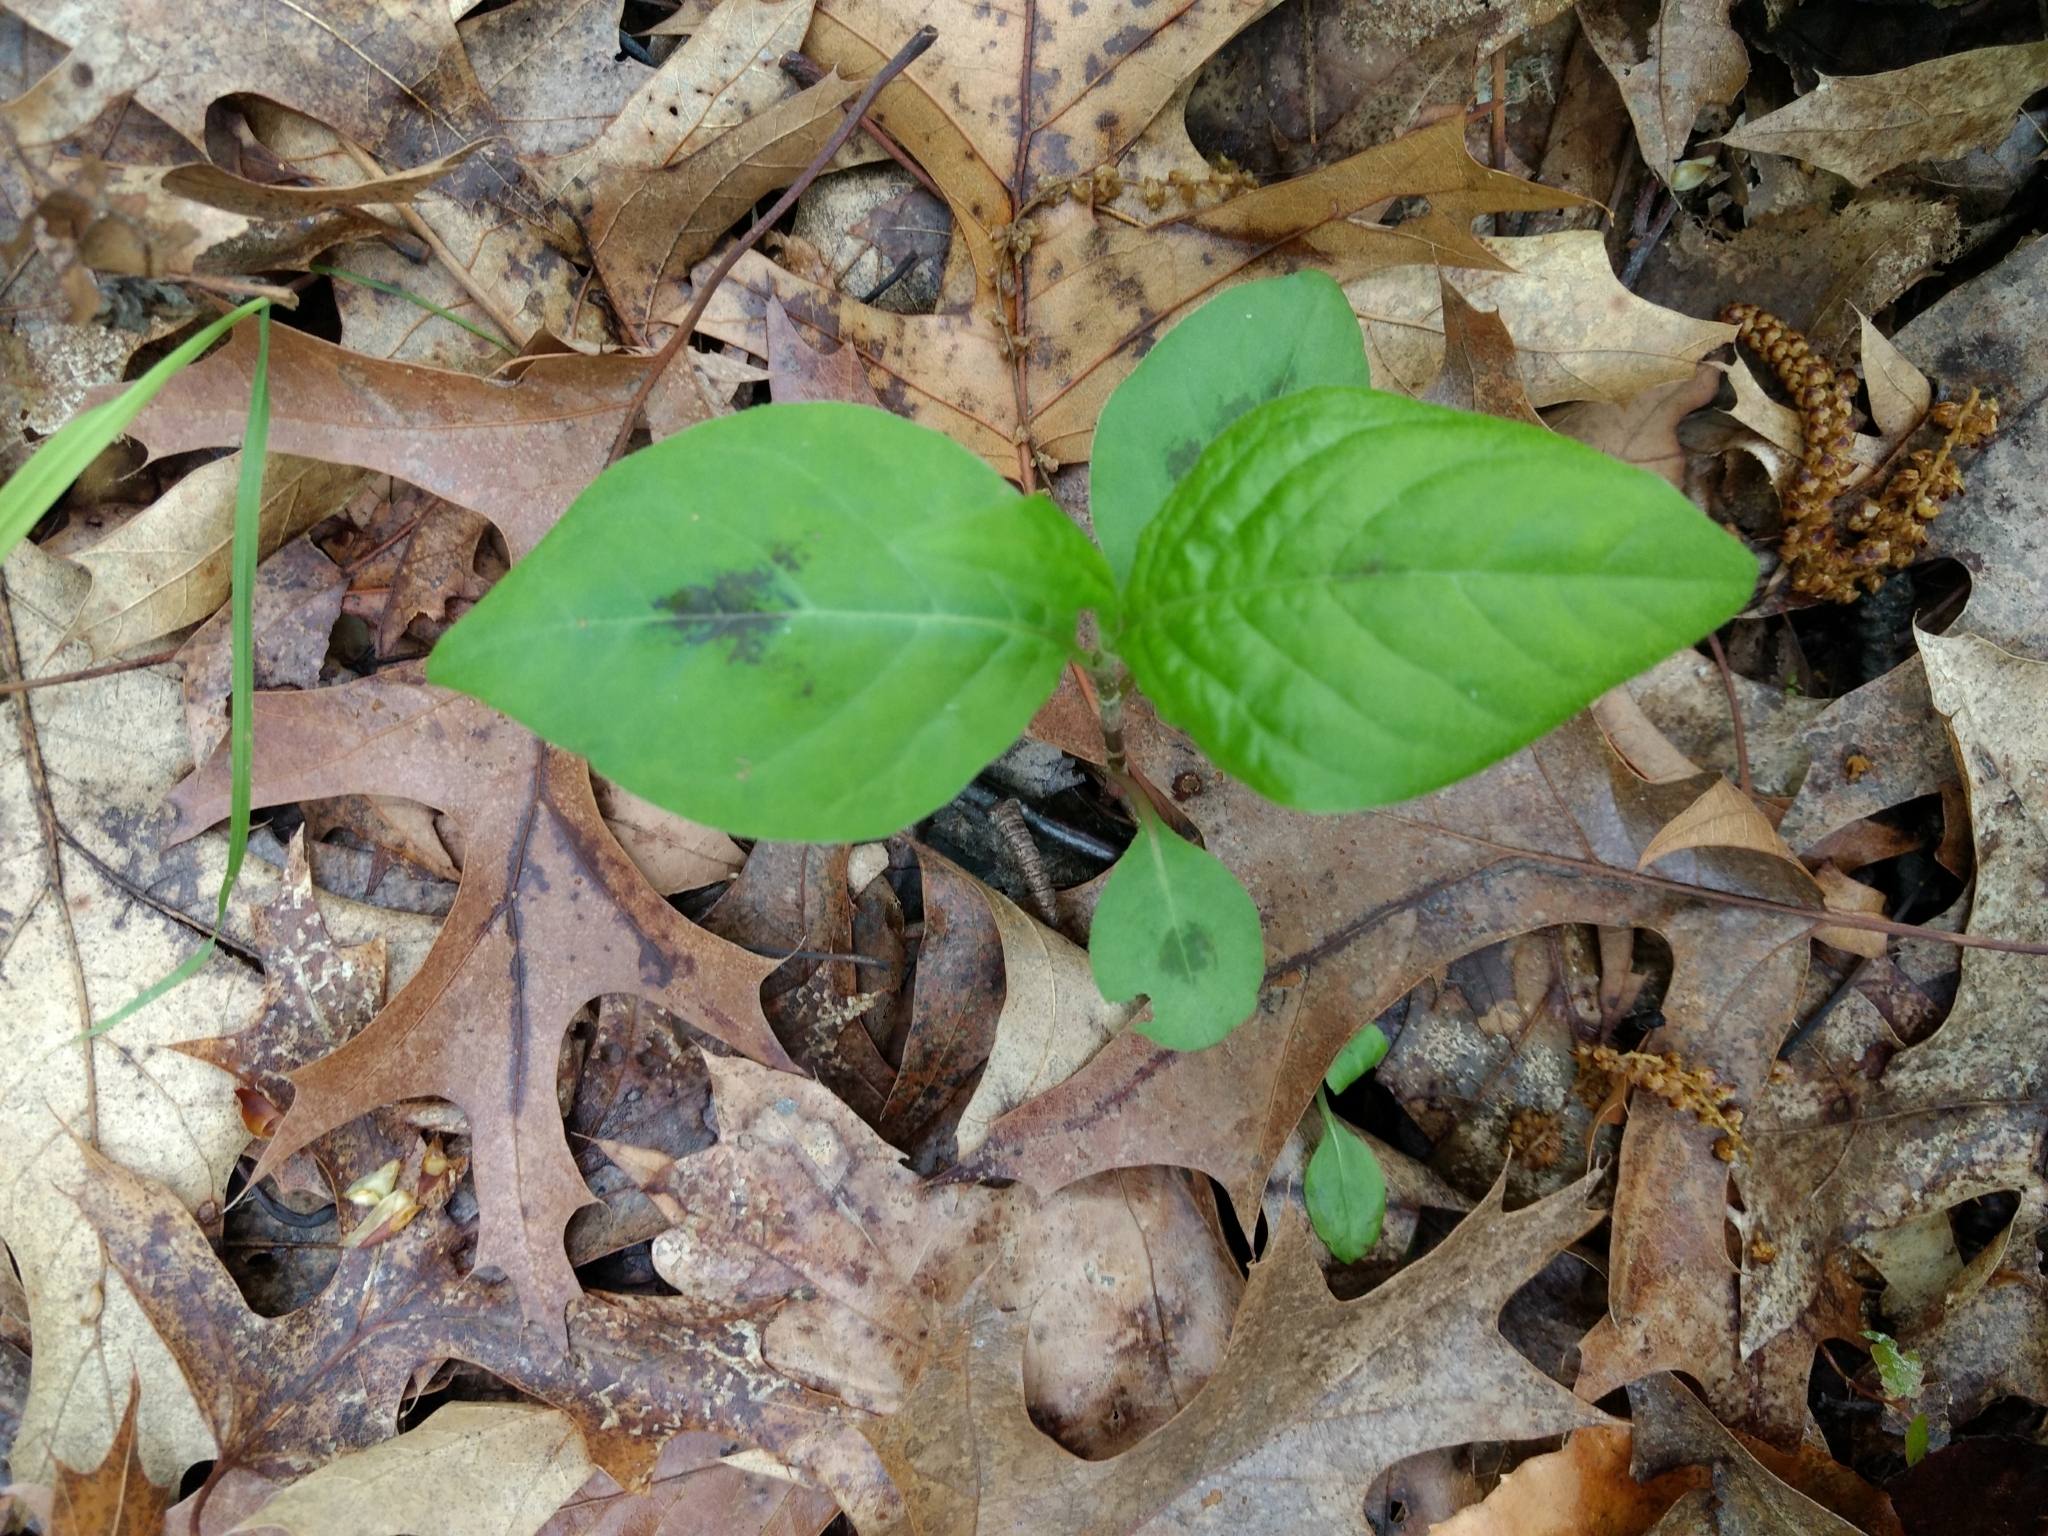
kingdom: Plantae
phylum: Tracheophyta
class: Magnoliopsida
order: Caryophyllales
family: Polygonaceae
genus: Persicaria
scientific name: Persicaria virginiana
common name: Jumpseed
